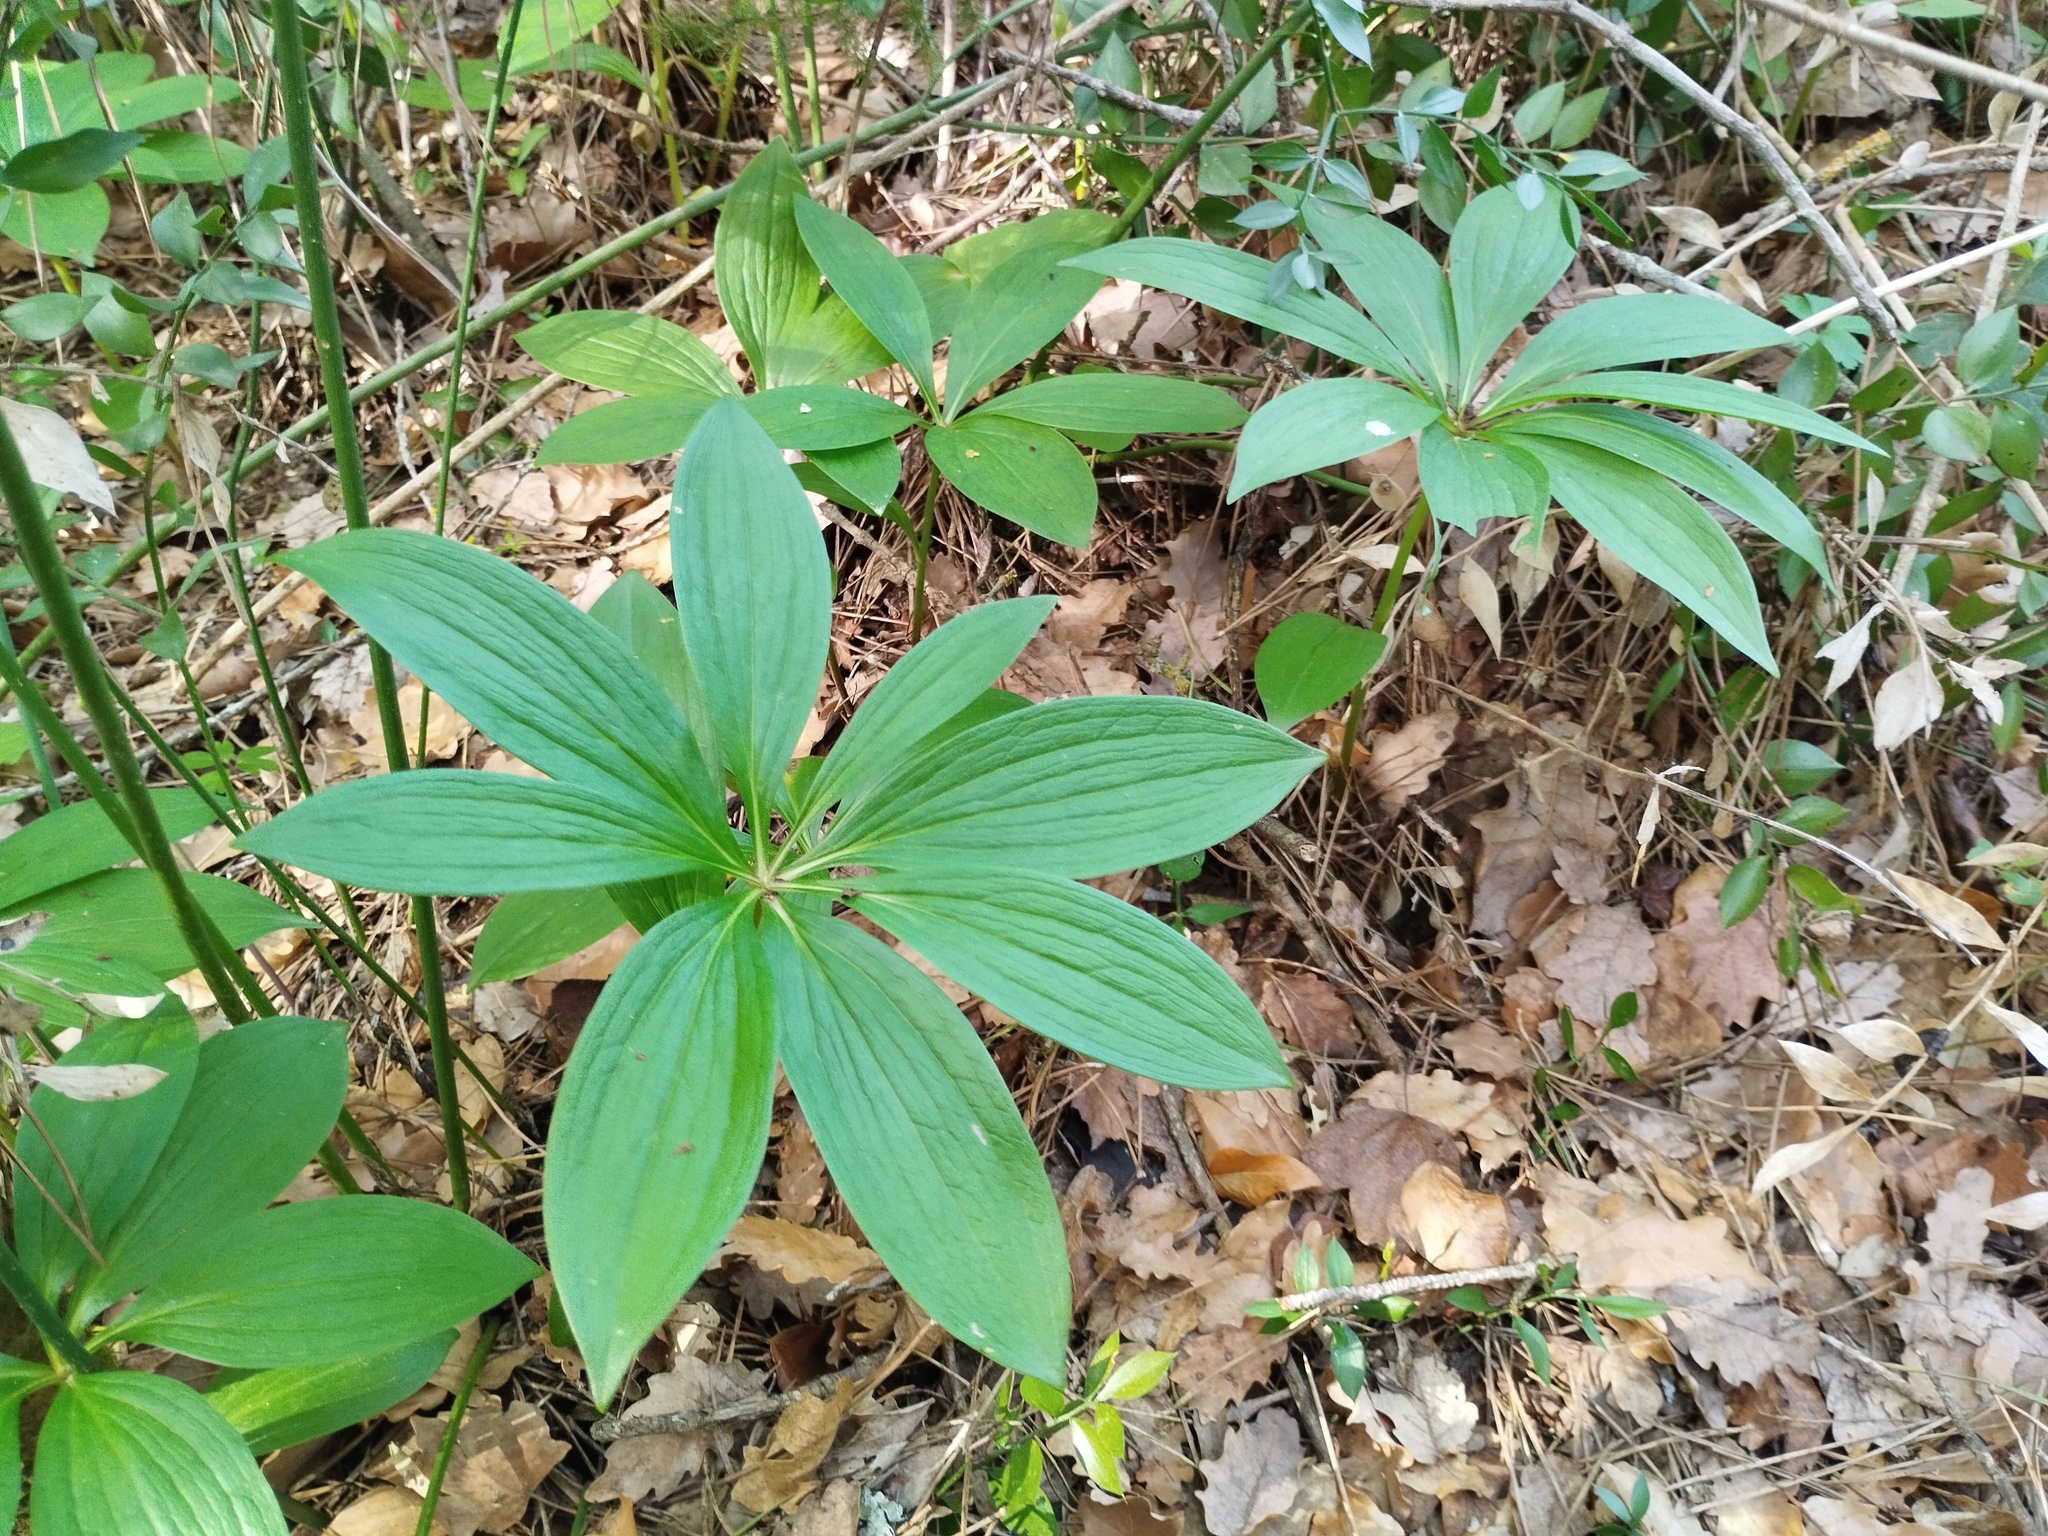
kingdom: Plantae
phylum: Tracheophyta
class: Liliopsida
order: Liliales
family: Liliaceae
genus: Lilium
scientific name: Lilium martagon
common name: Martagon lily
